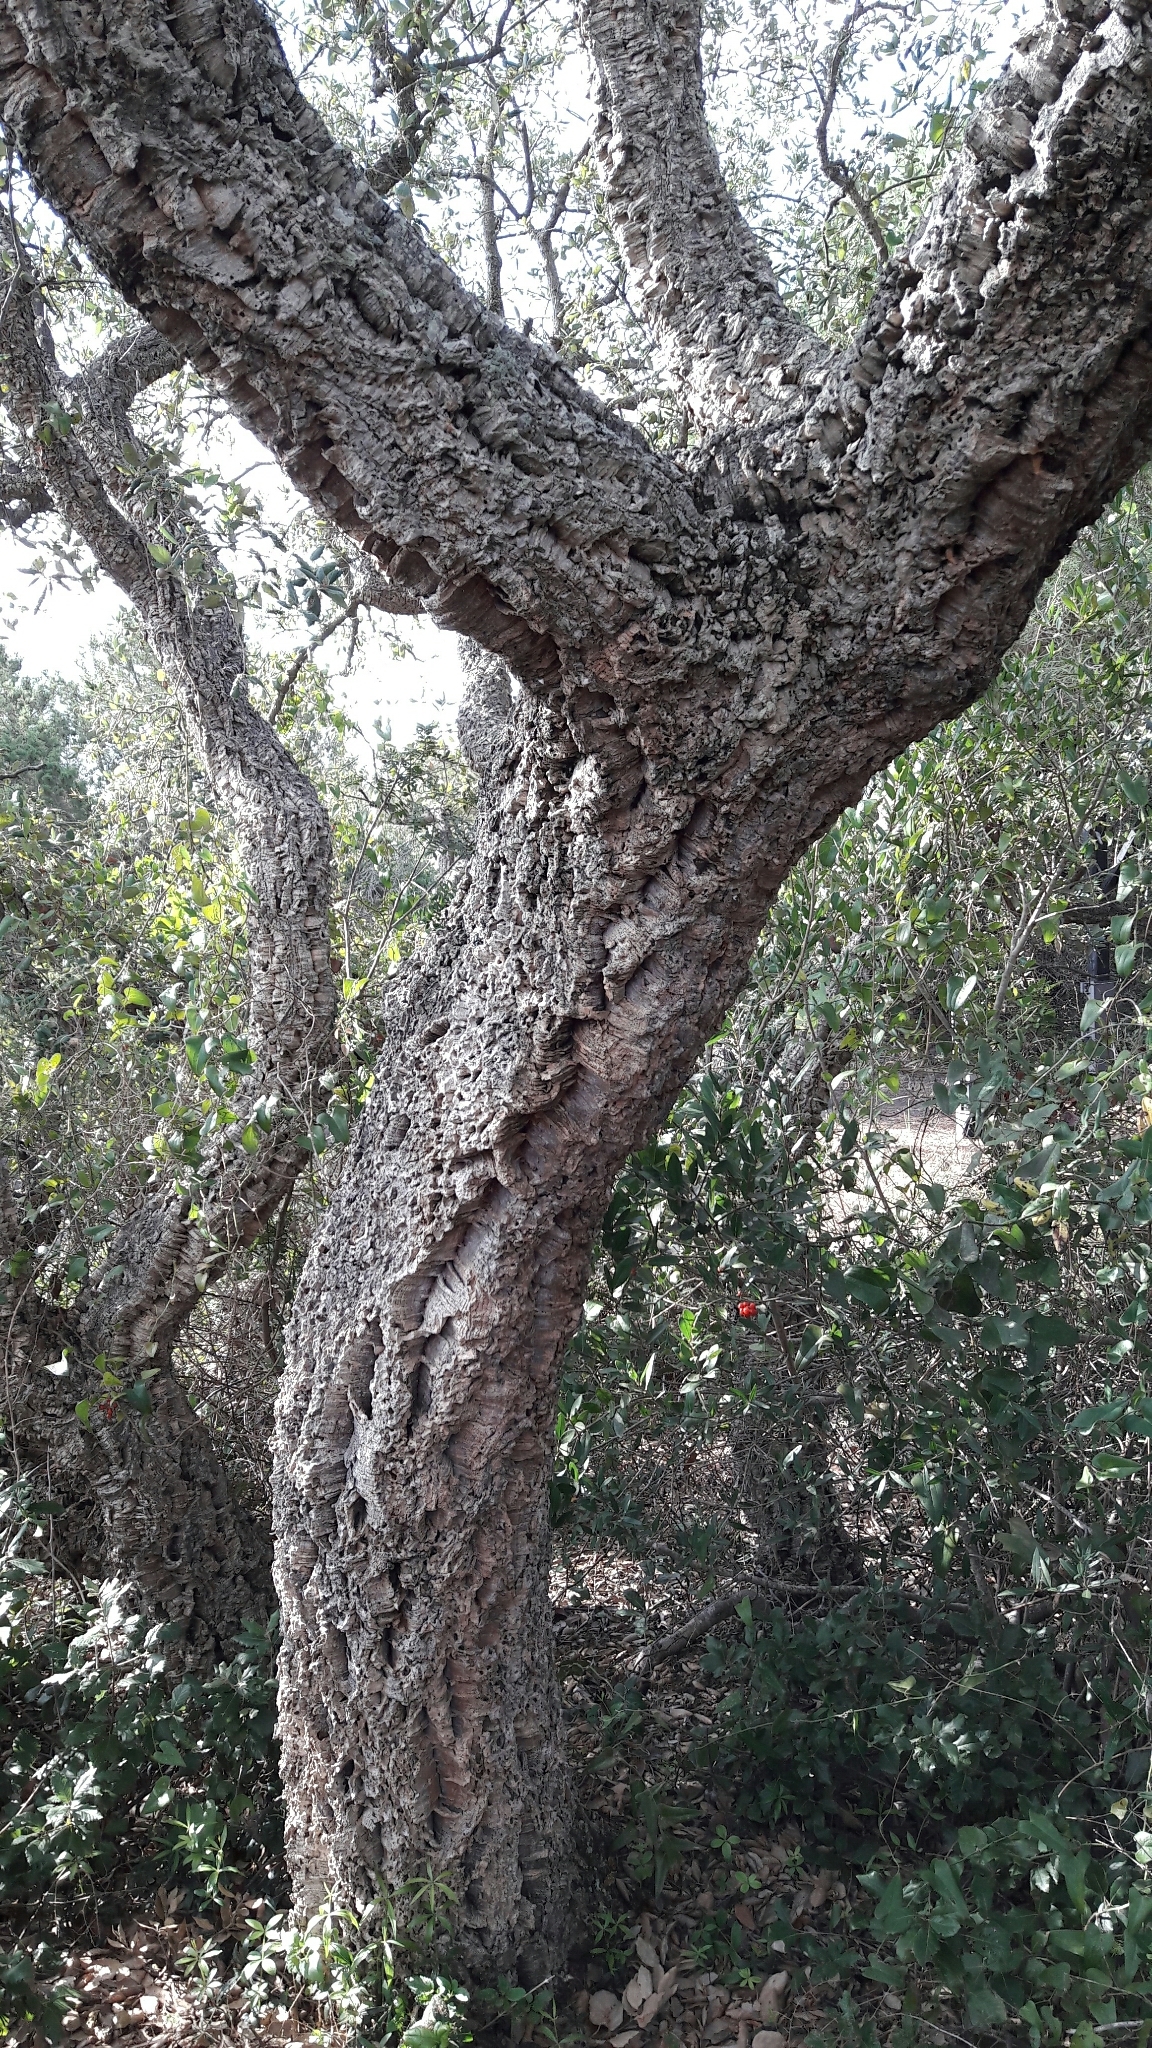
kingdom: Plantae
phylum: Tracheophyta
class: Magnoliopsida
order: Fagales
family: Fagaceae
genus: Quercus
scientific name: Quercus suber
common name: Cork oak
